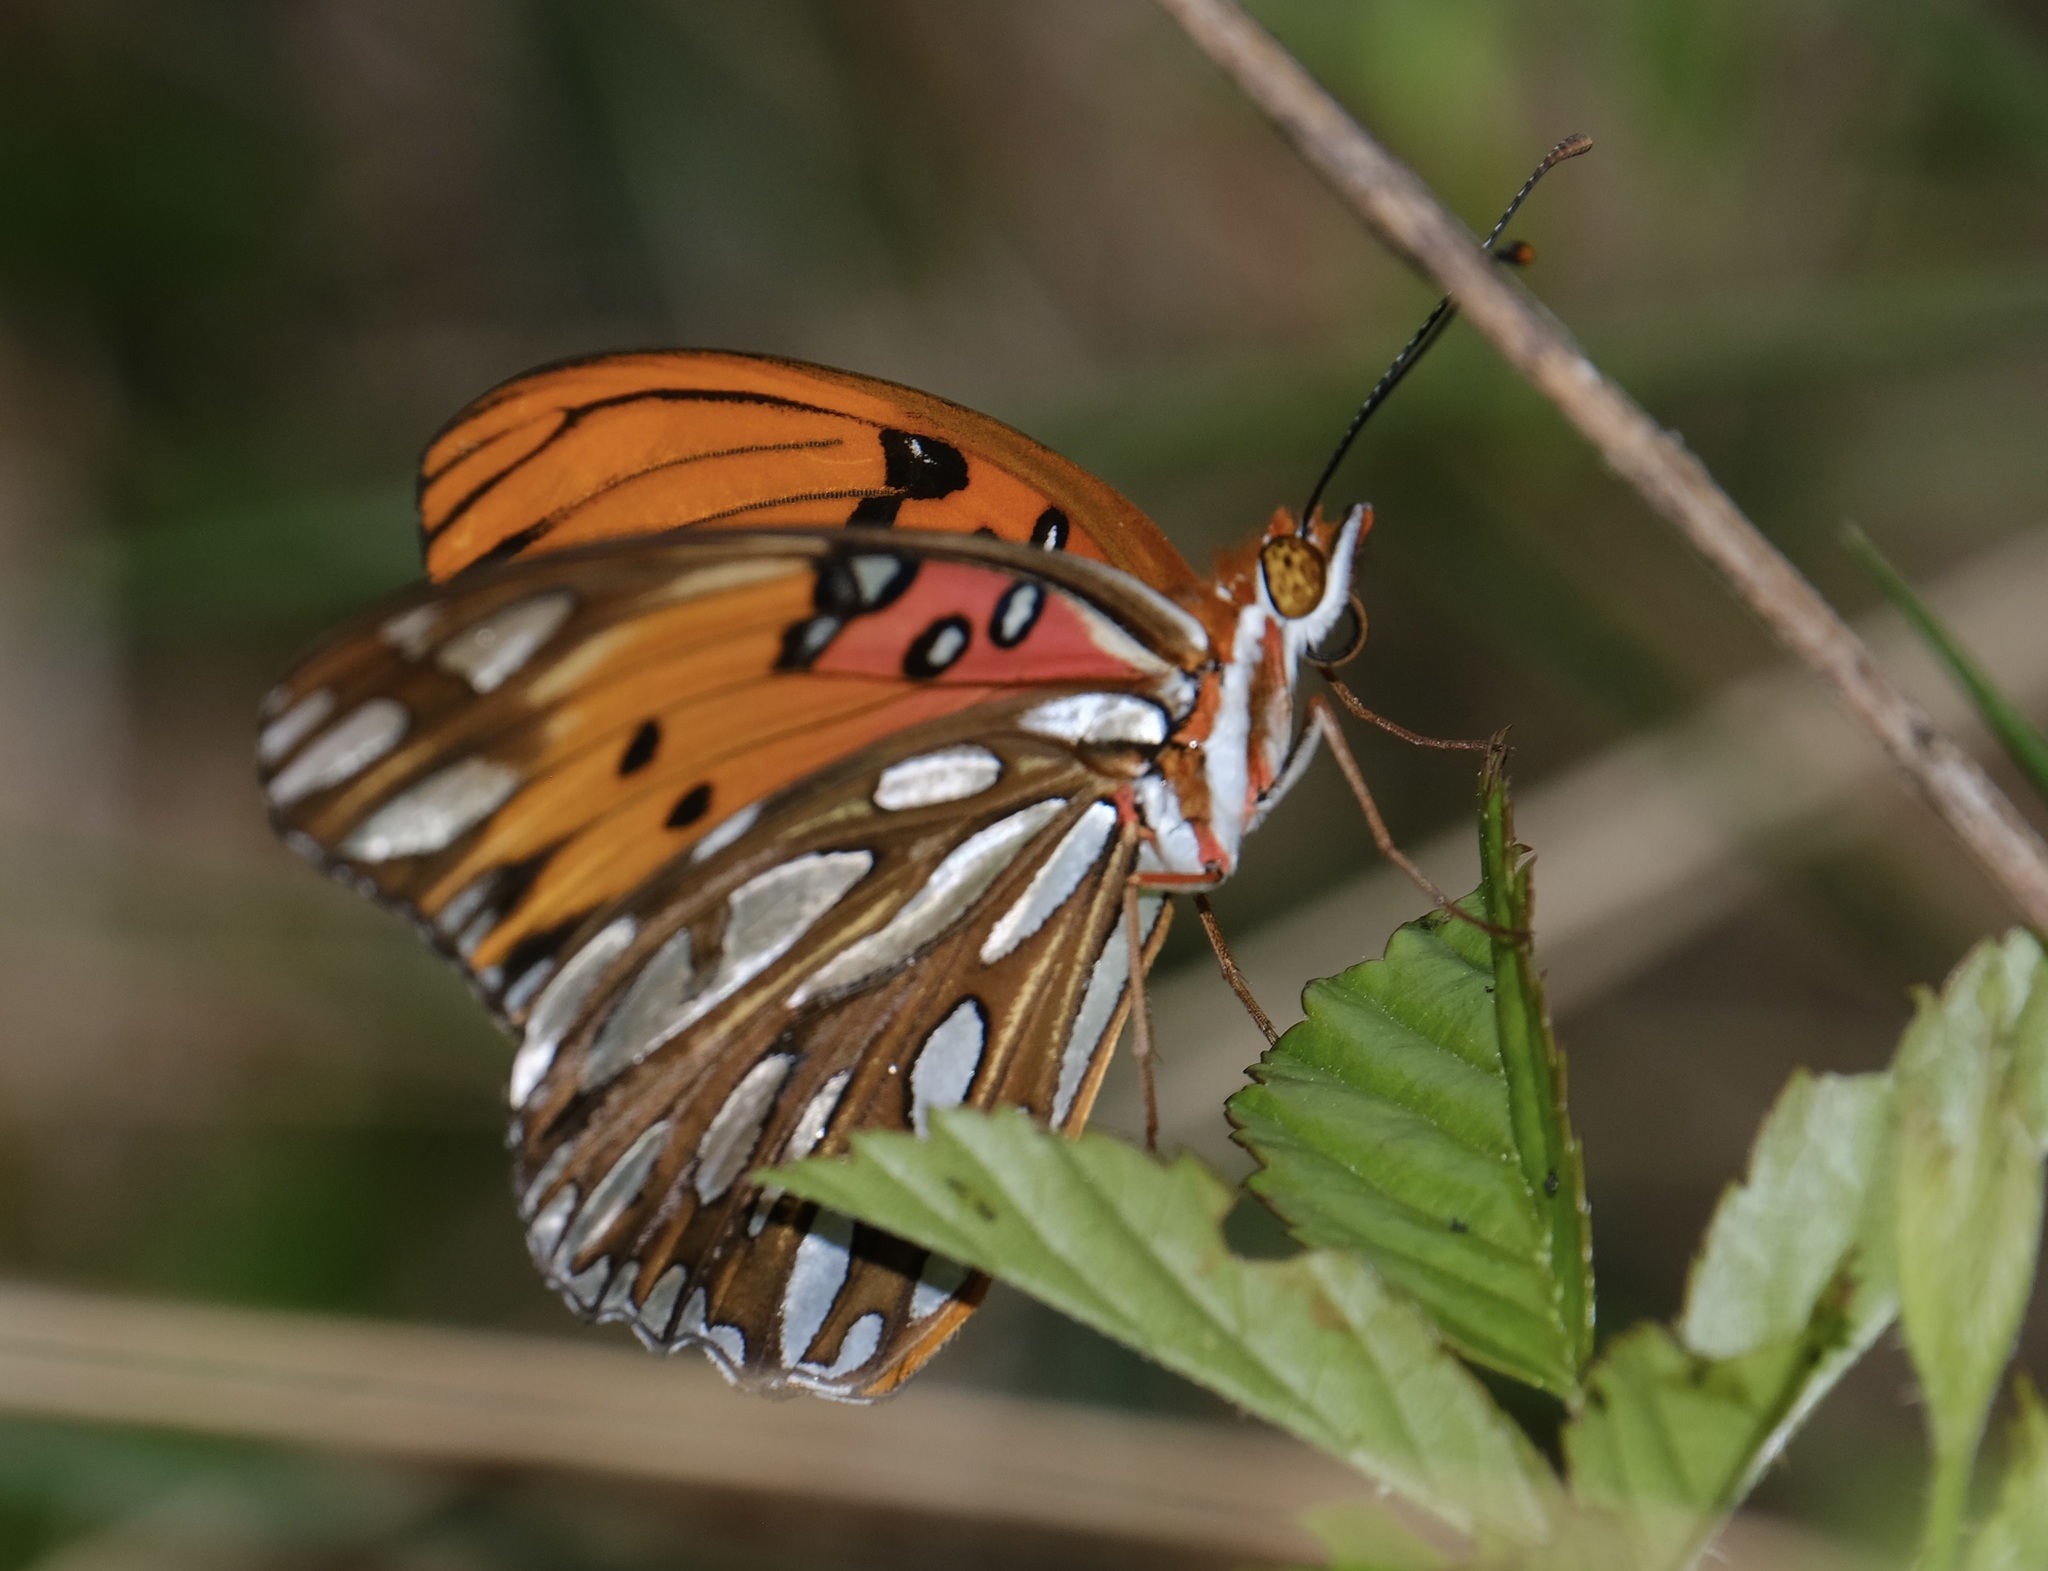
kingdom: Animalia
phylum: Arthropoda
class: Insecta
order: Lepidoptera
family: Nymphalidae
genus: Dione
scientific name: Dione vanillae
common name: Gulf fritillary
